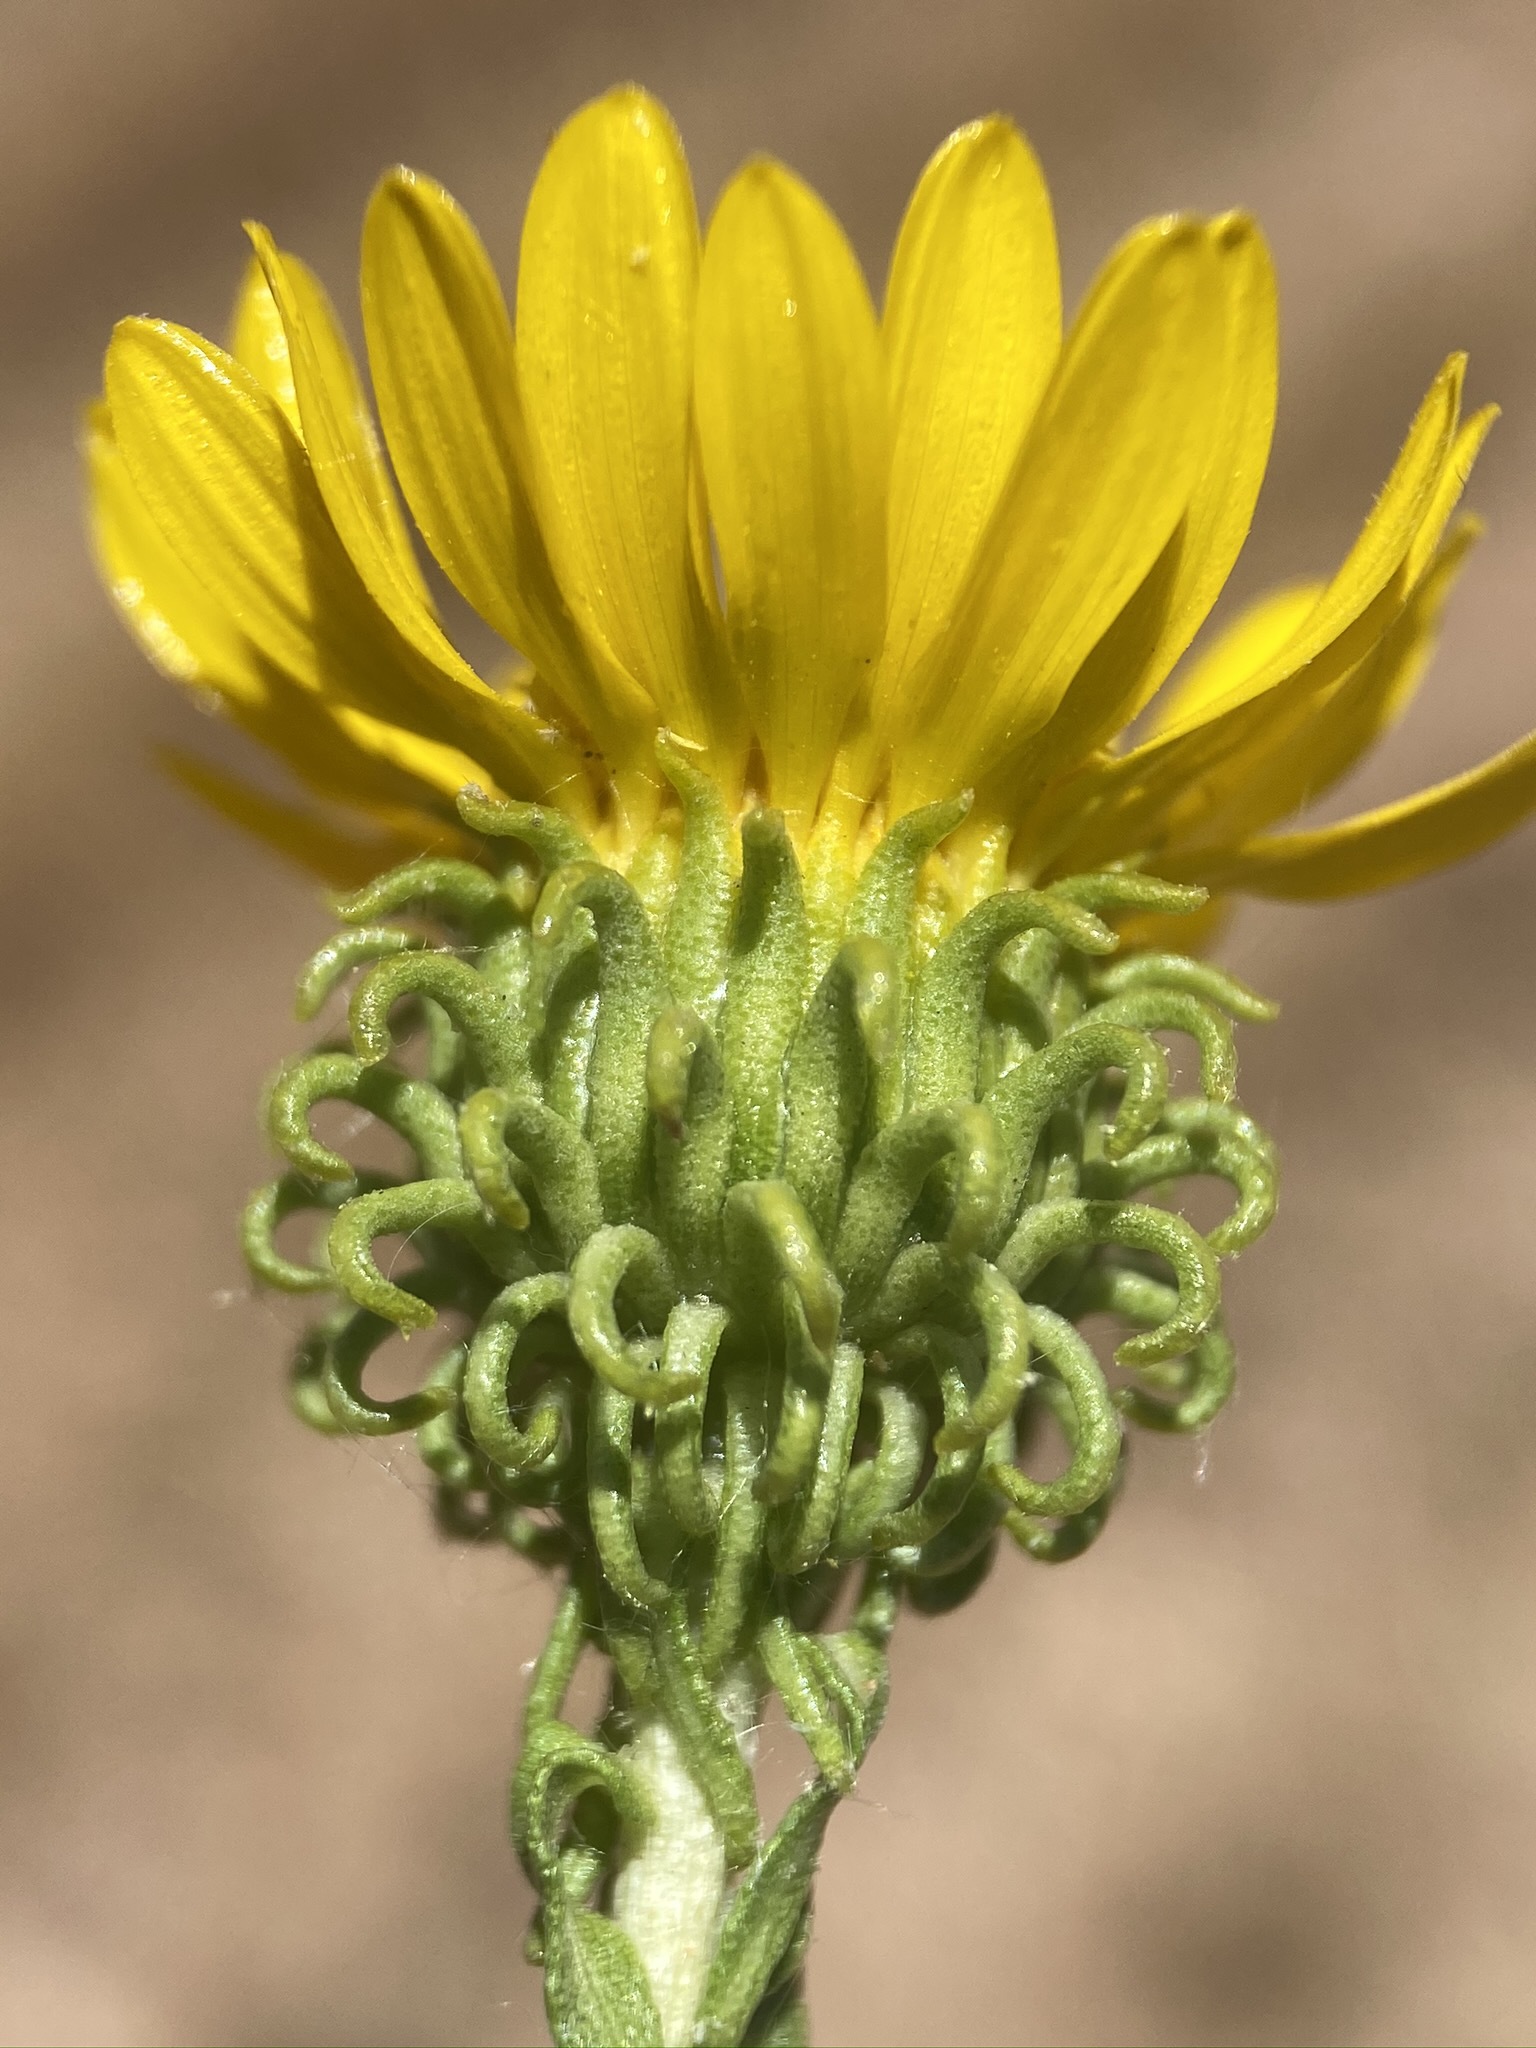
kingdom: Plantae
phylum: Tracheophyta
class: Magnoliopsida
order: Asterales
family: Asteraceae
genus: Grindelia
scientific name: Grindelia squarrosa
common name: Curly-cup gumweed
